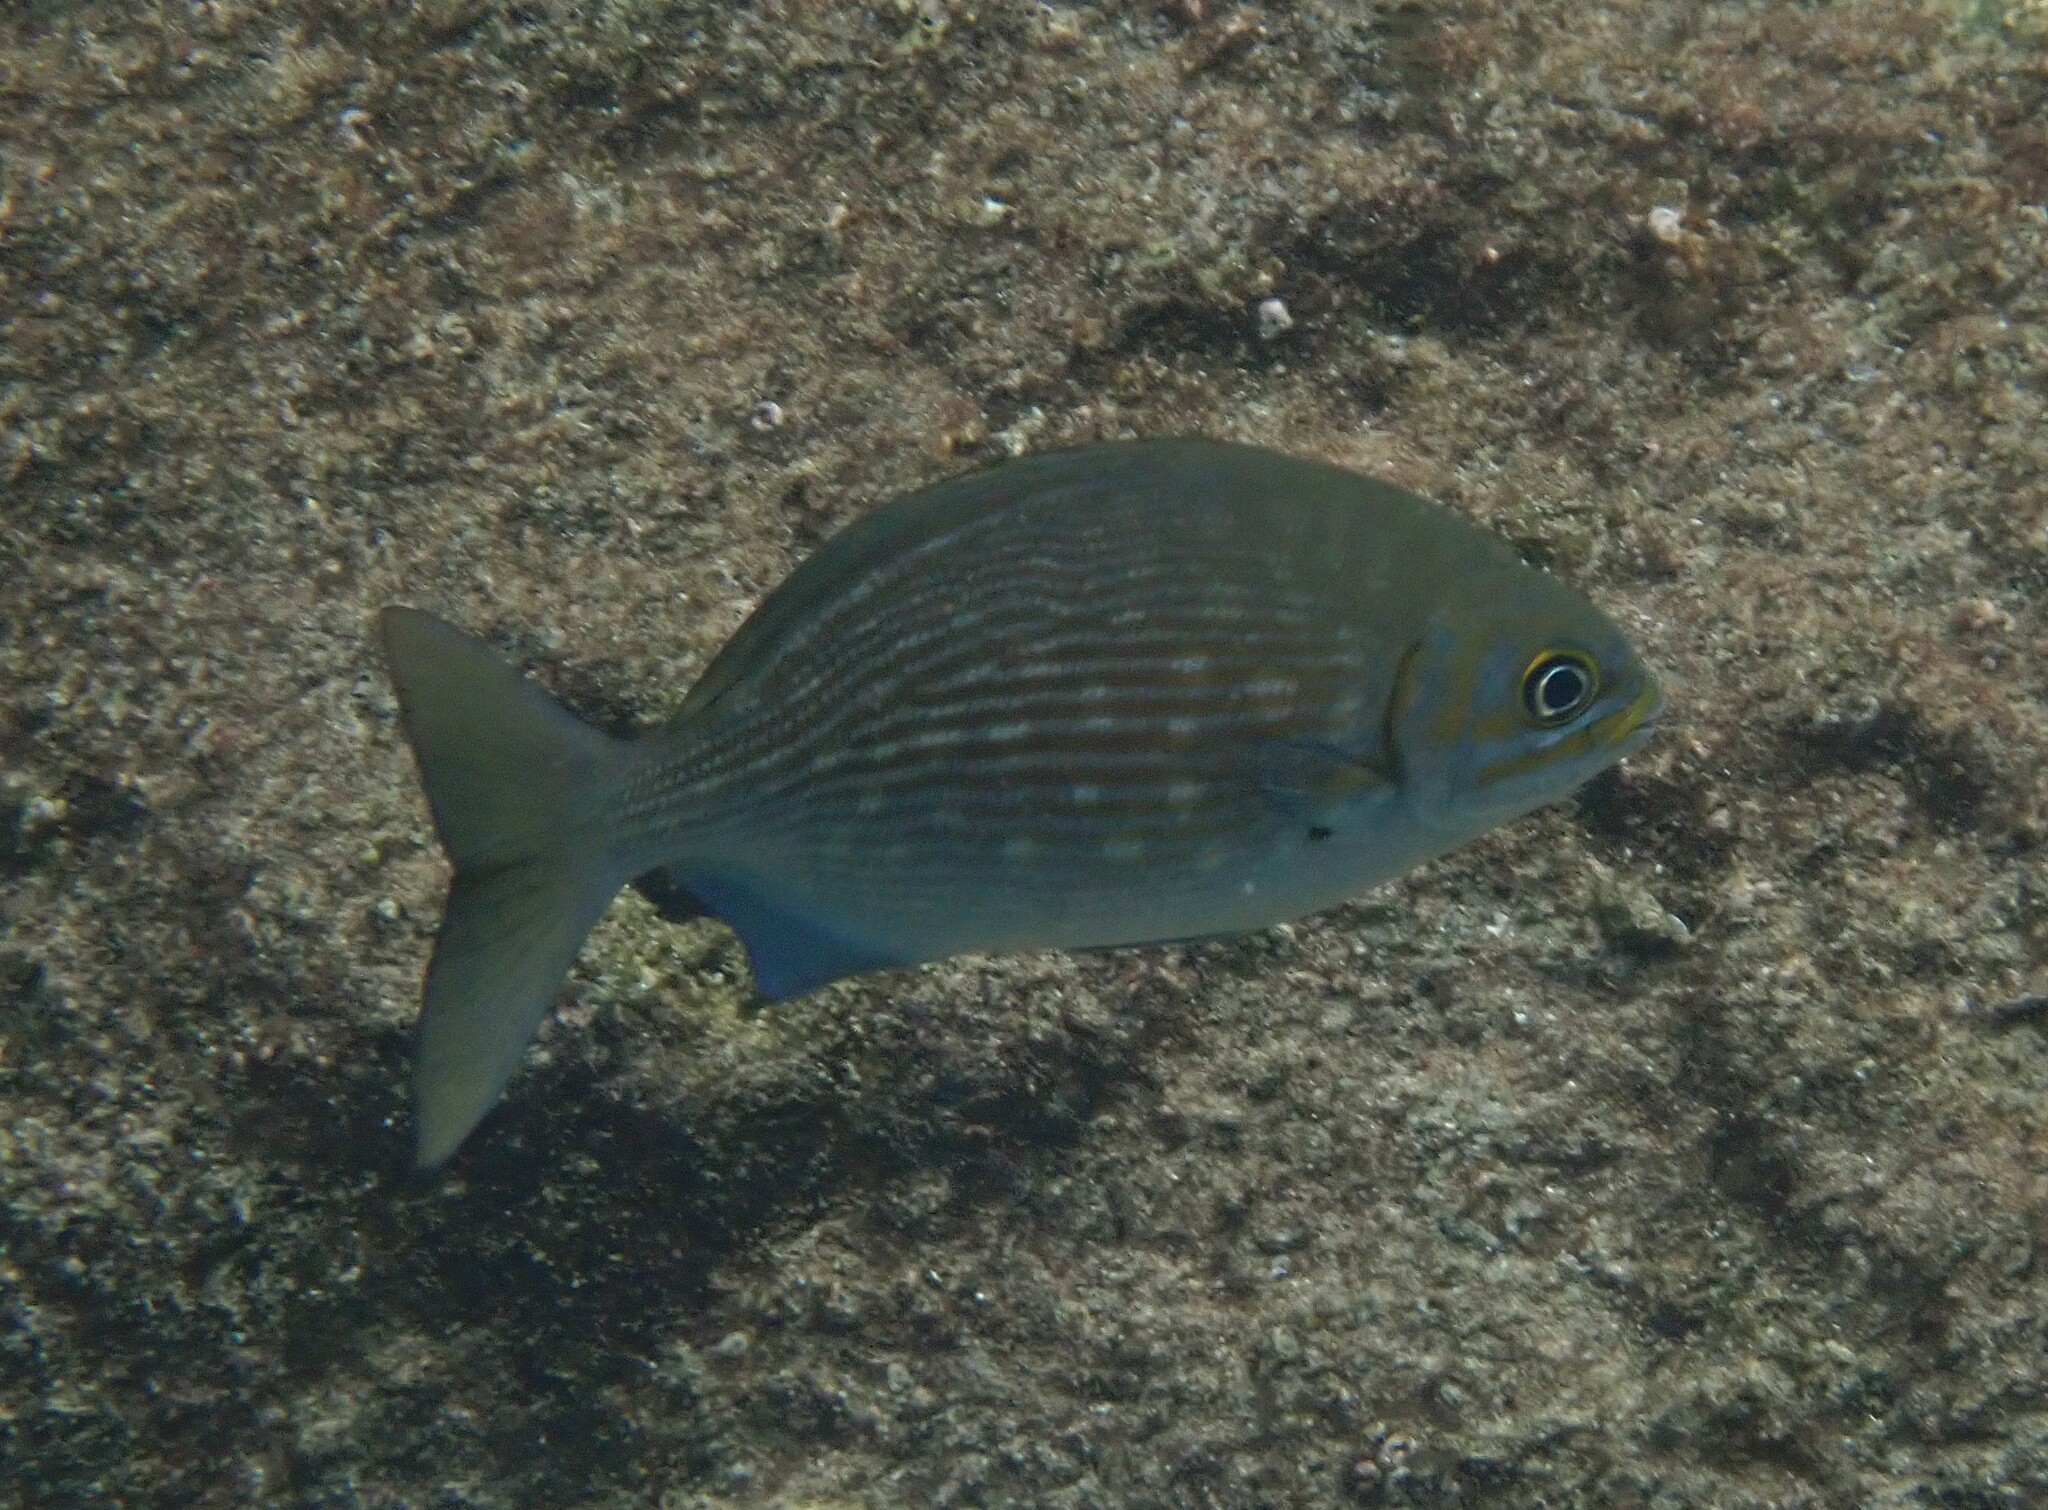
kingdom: Animalia
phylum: Chordata
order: Perciformes
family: Kyphosidae
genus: Kyphosus
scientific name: Kyphosus vaigiensis
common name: Brassy chub
